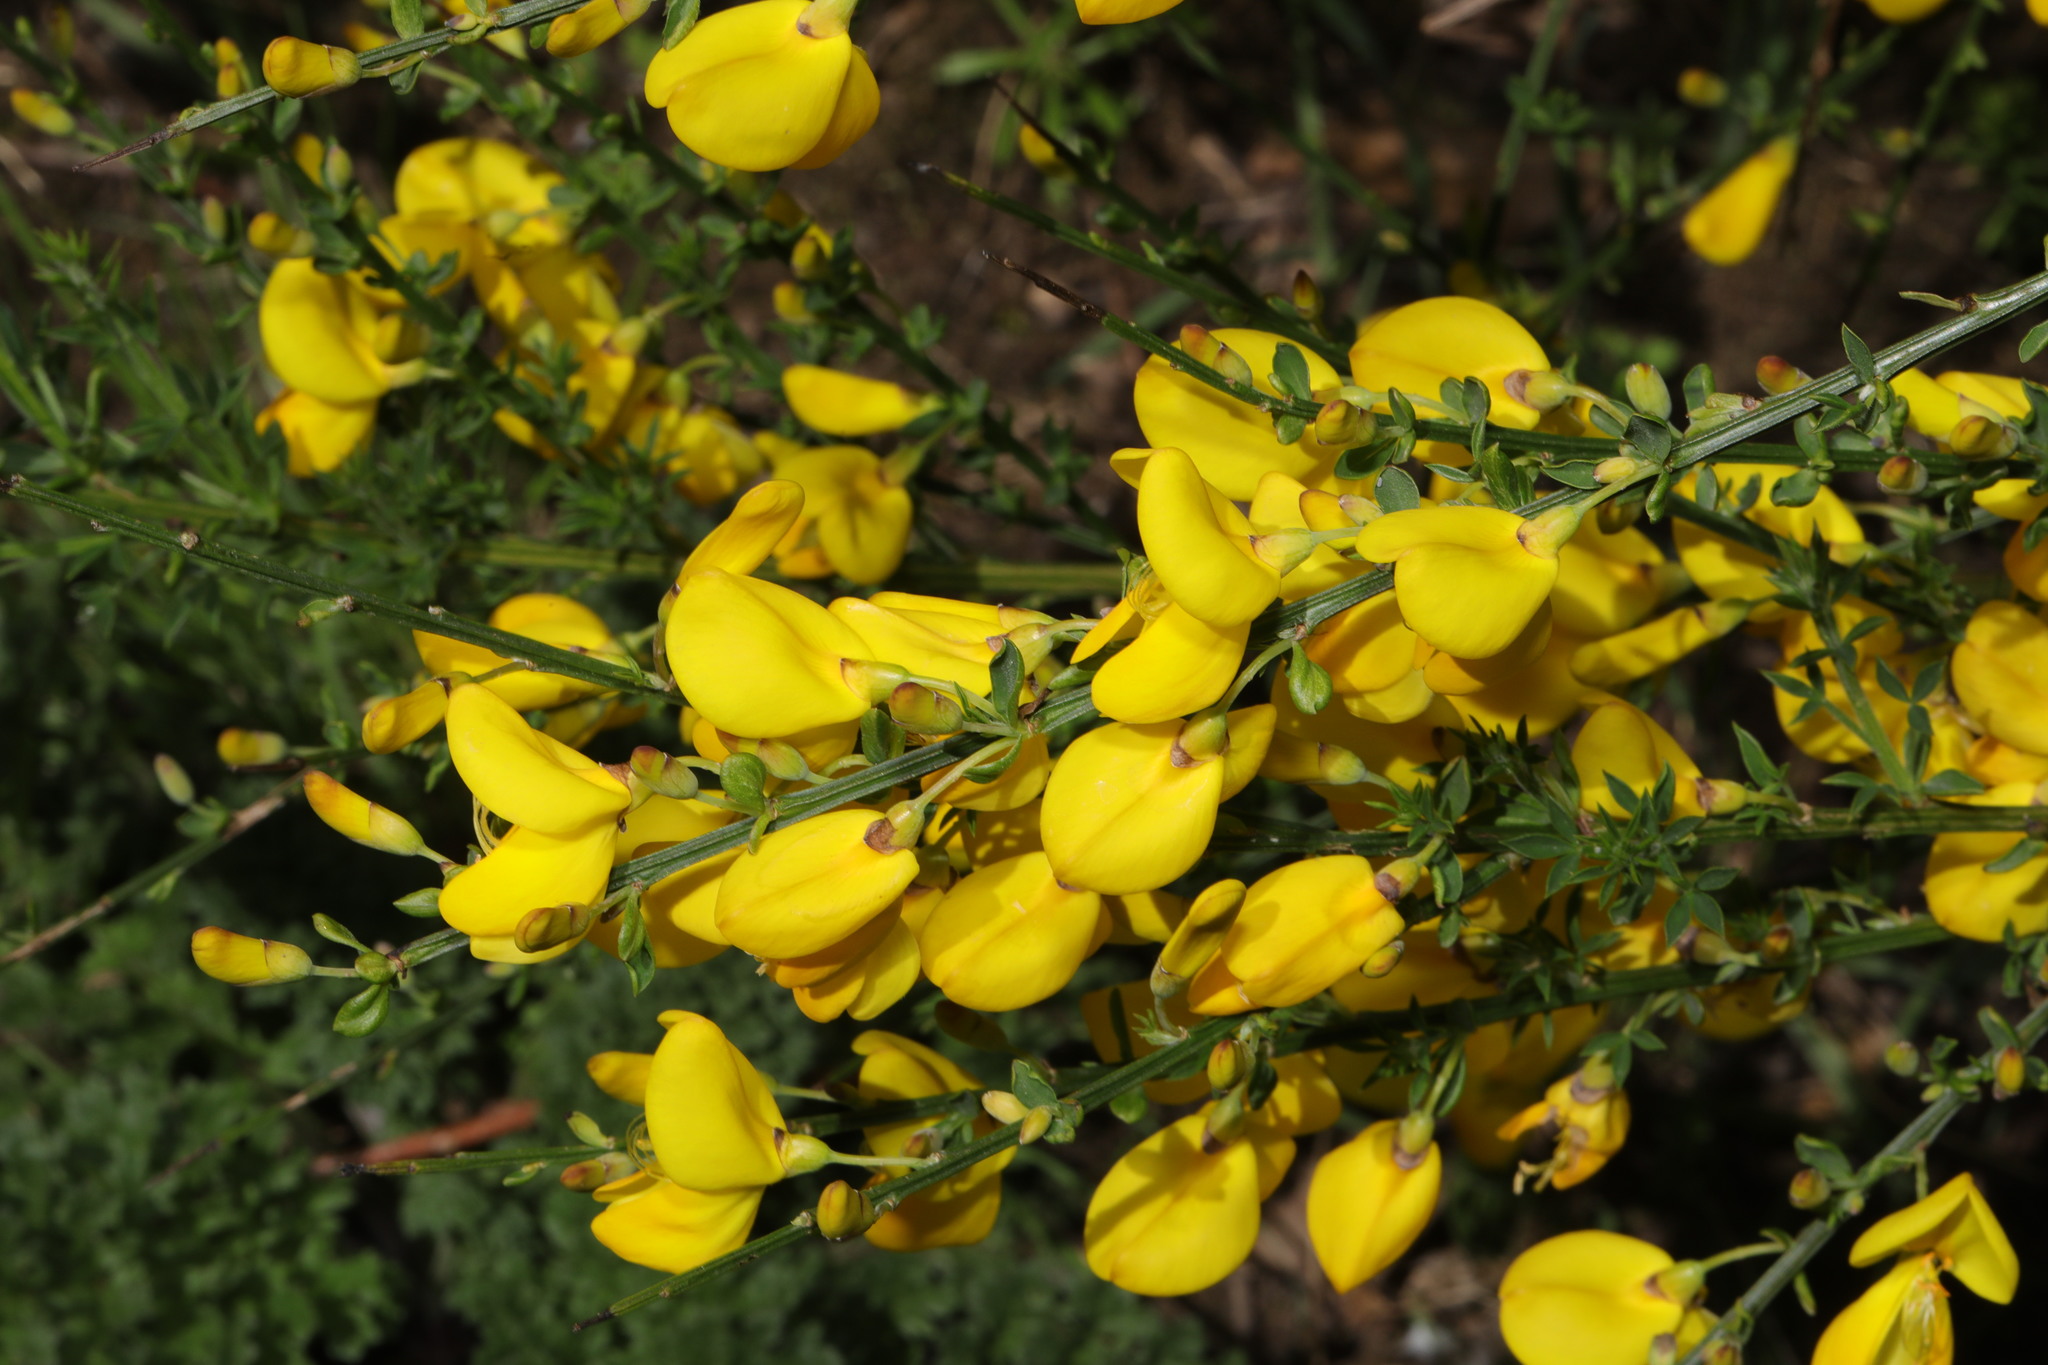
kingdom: Plantae
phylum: Tracheophyta
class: Magnoliopsida
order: Fabales
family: Fabaceae
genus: Cytisus
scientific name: Cytisus scoparius
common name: Scotch broom
